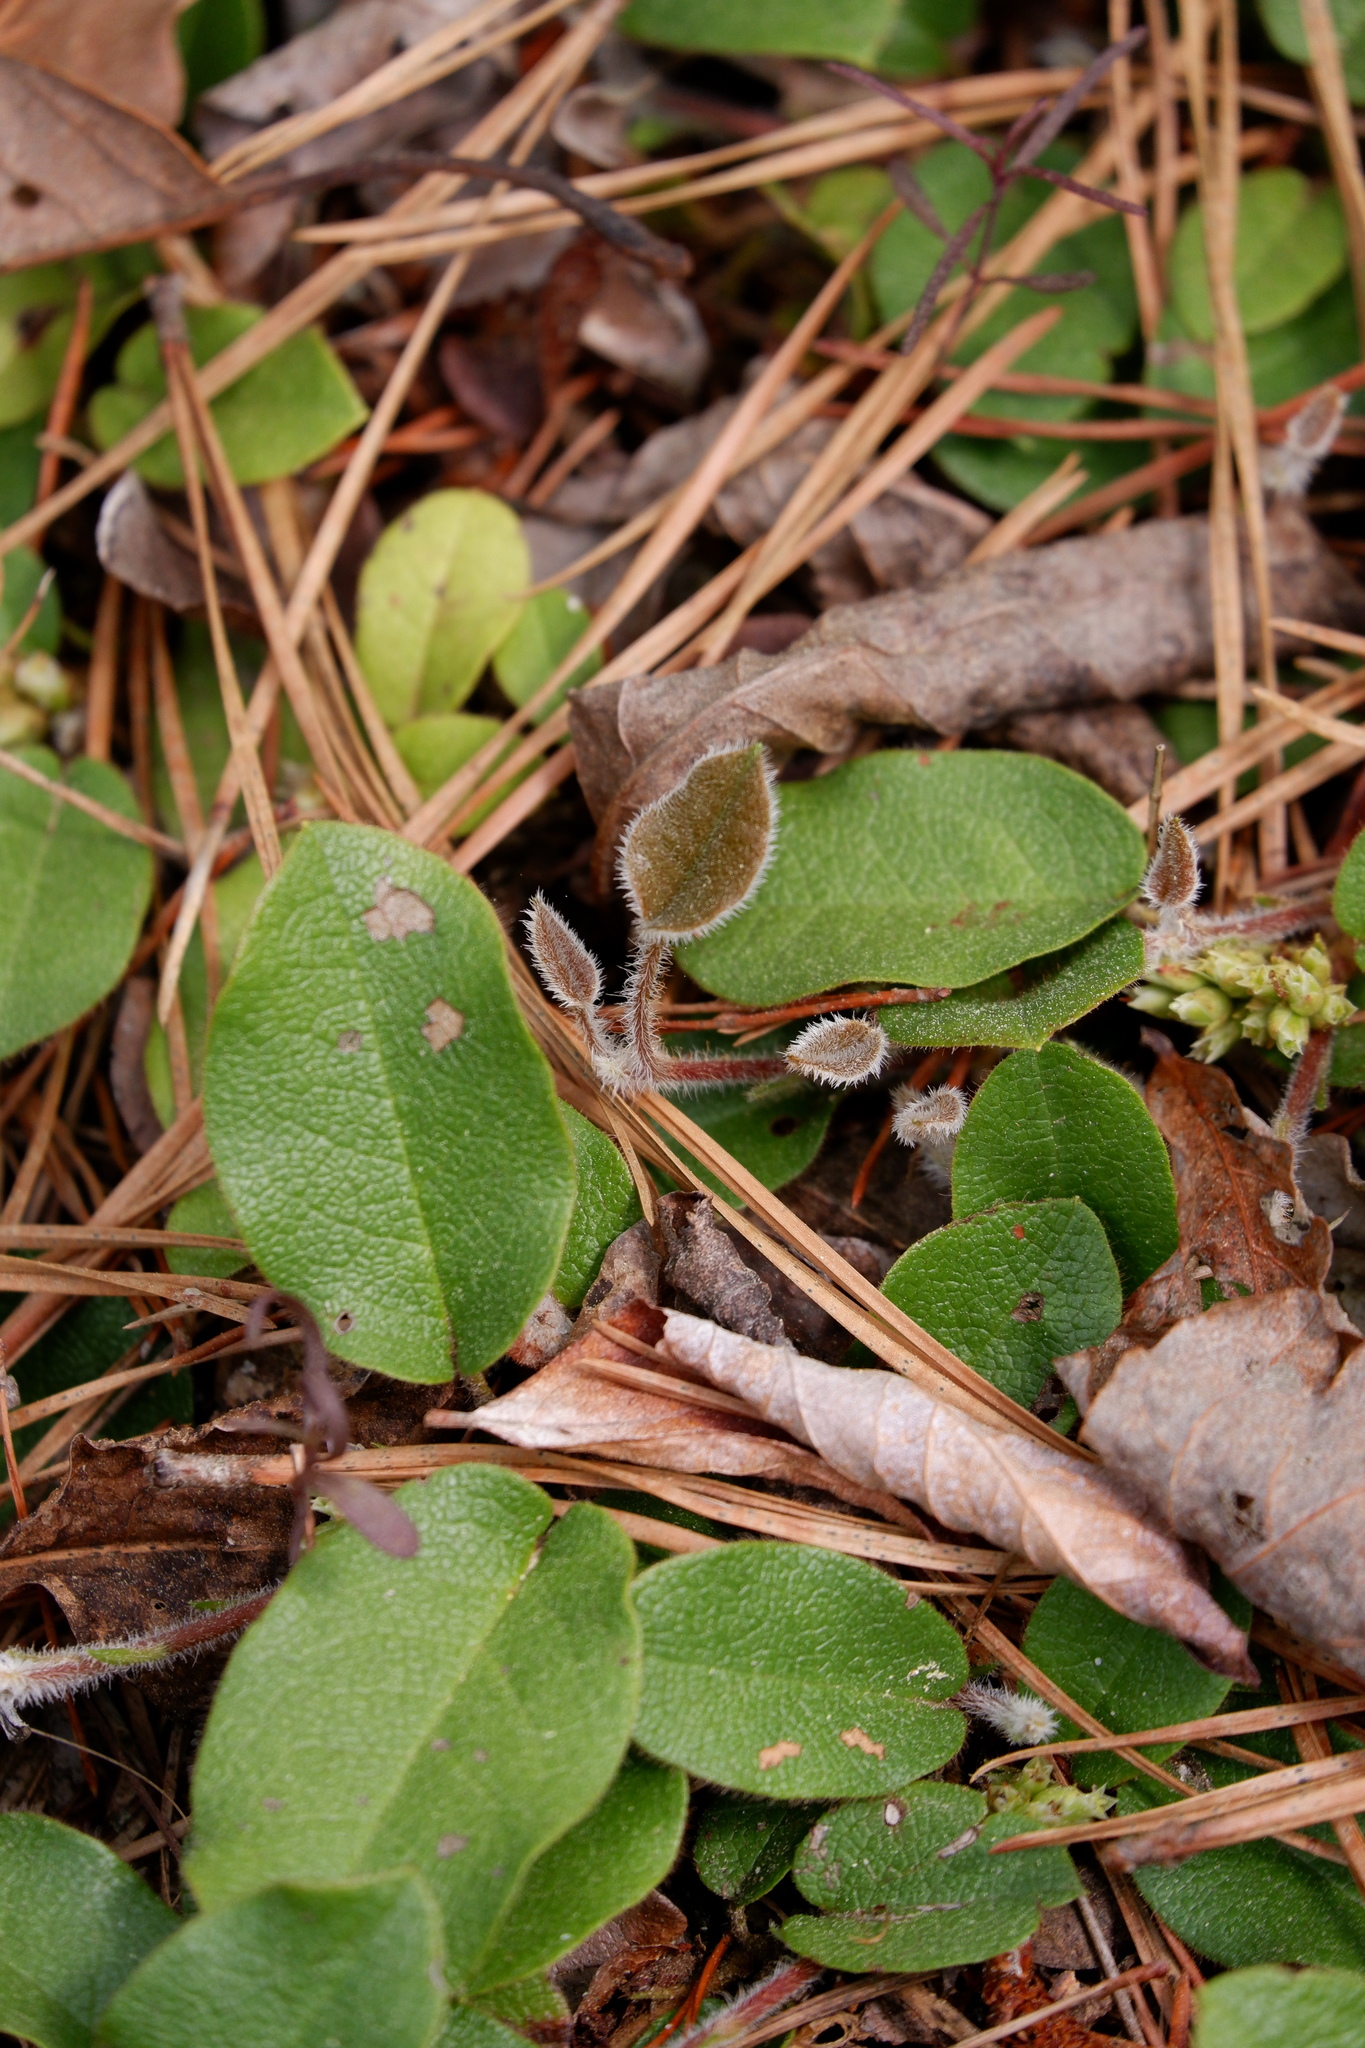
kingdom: Plantae
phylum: Tracheophyta
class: Magnoliopsida
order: Ericales
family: Ericaceae
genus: Epigaea
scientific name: Epigaea repens
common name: Gravelroot
